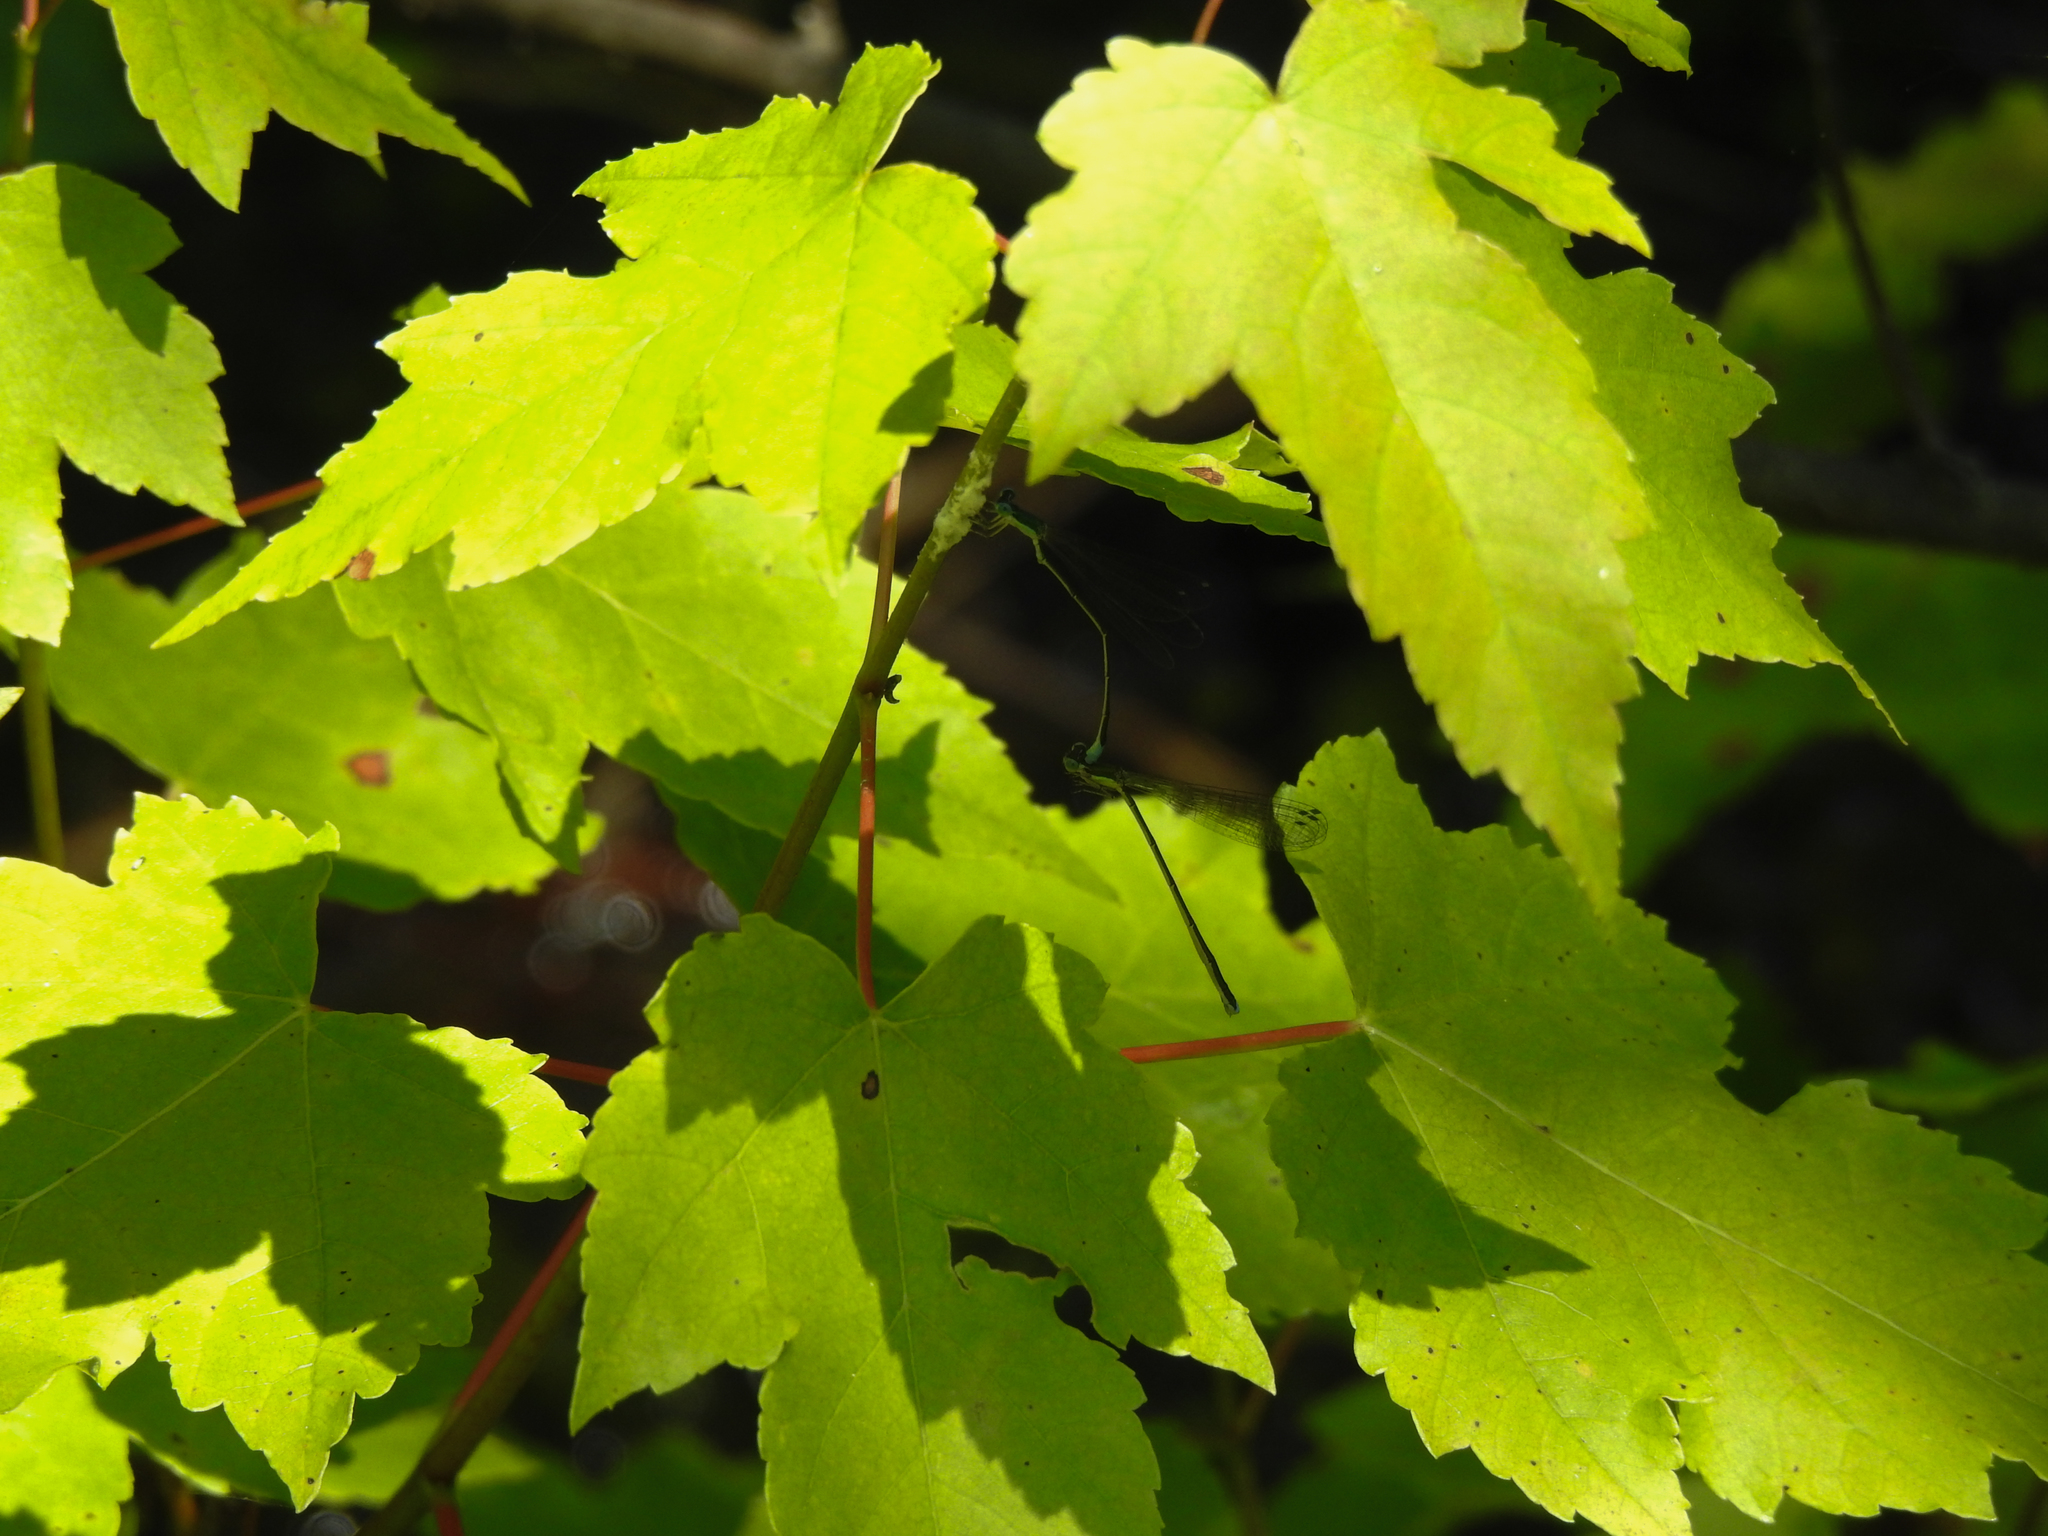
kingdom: Plantae
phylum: Tracheophyta
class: Magnoliopsida
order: Sapindales
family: Sapindaceae
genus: Acer
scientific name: Acer rubrum
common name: Red maple
